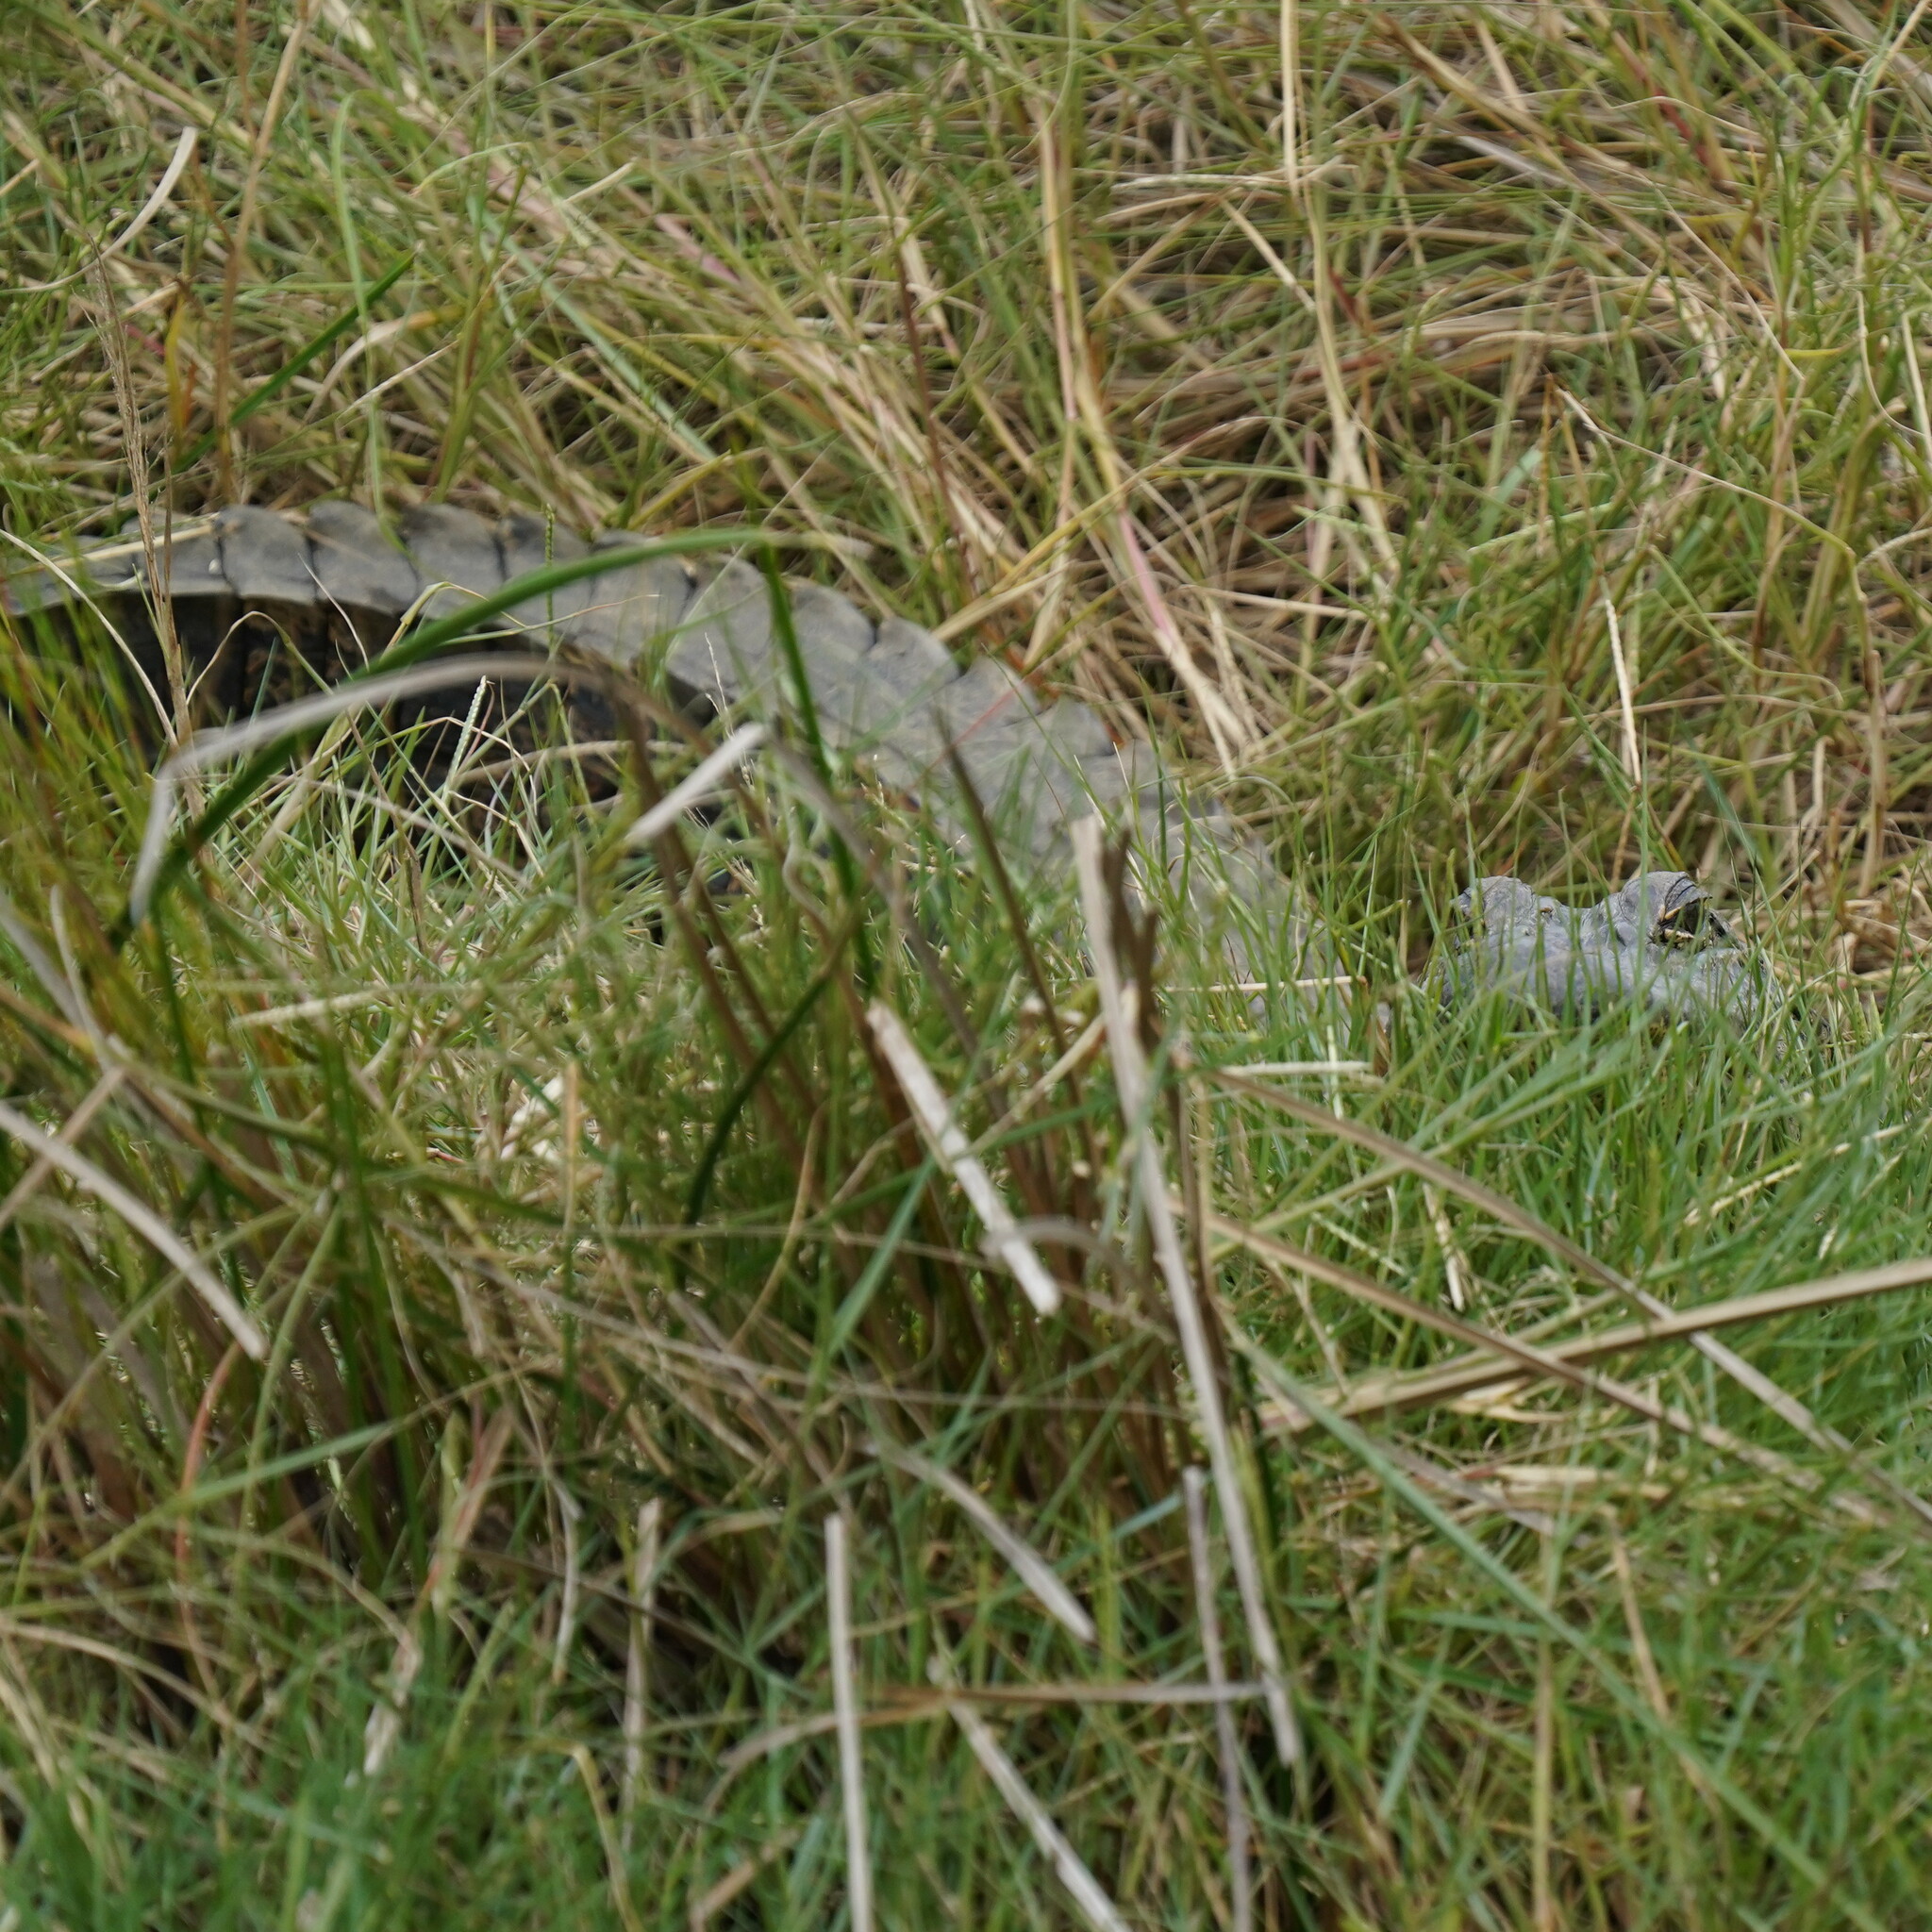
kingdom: Animalia
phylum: Chordata
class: Crocodylia
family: Alligatoridae
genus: Alligator
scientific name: Alligator mississippiensis
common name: American alligator
